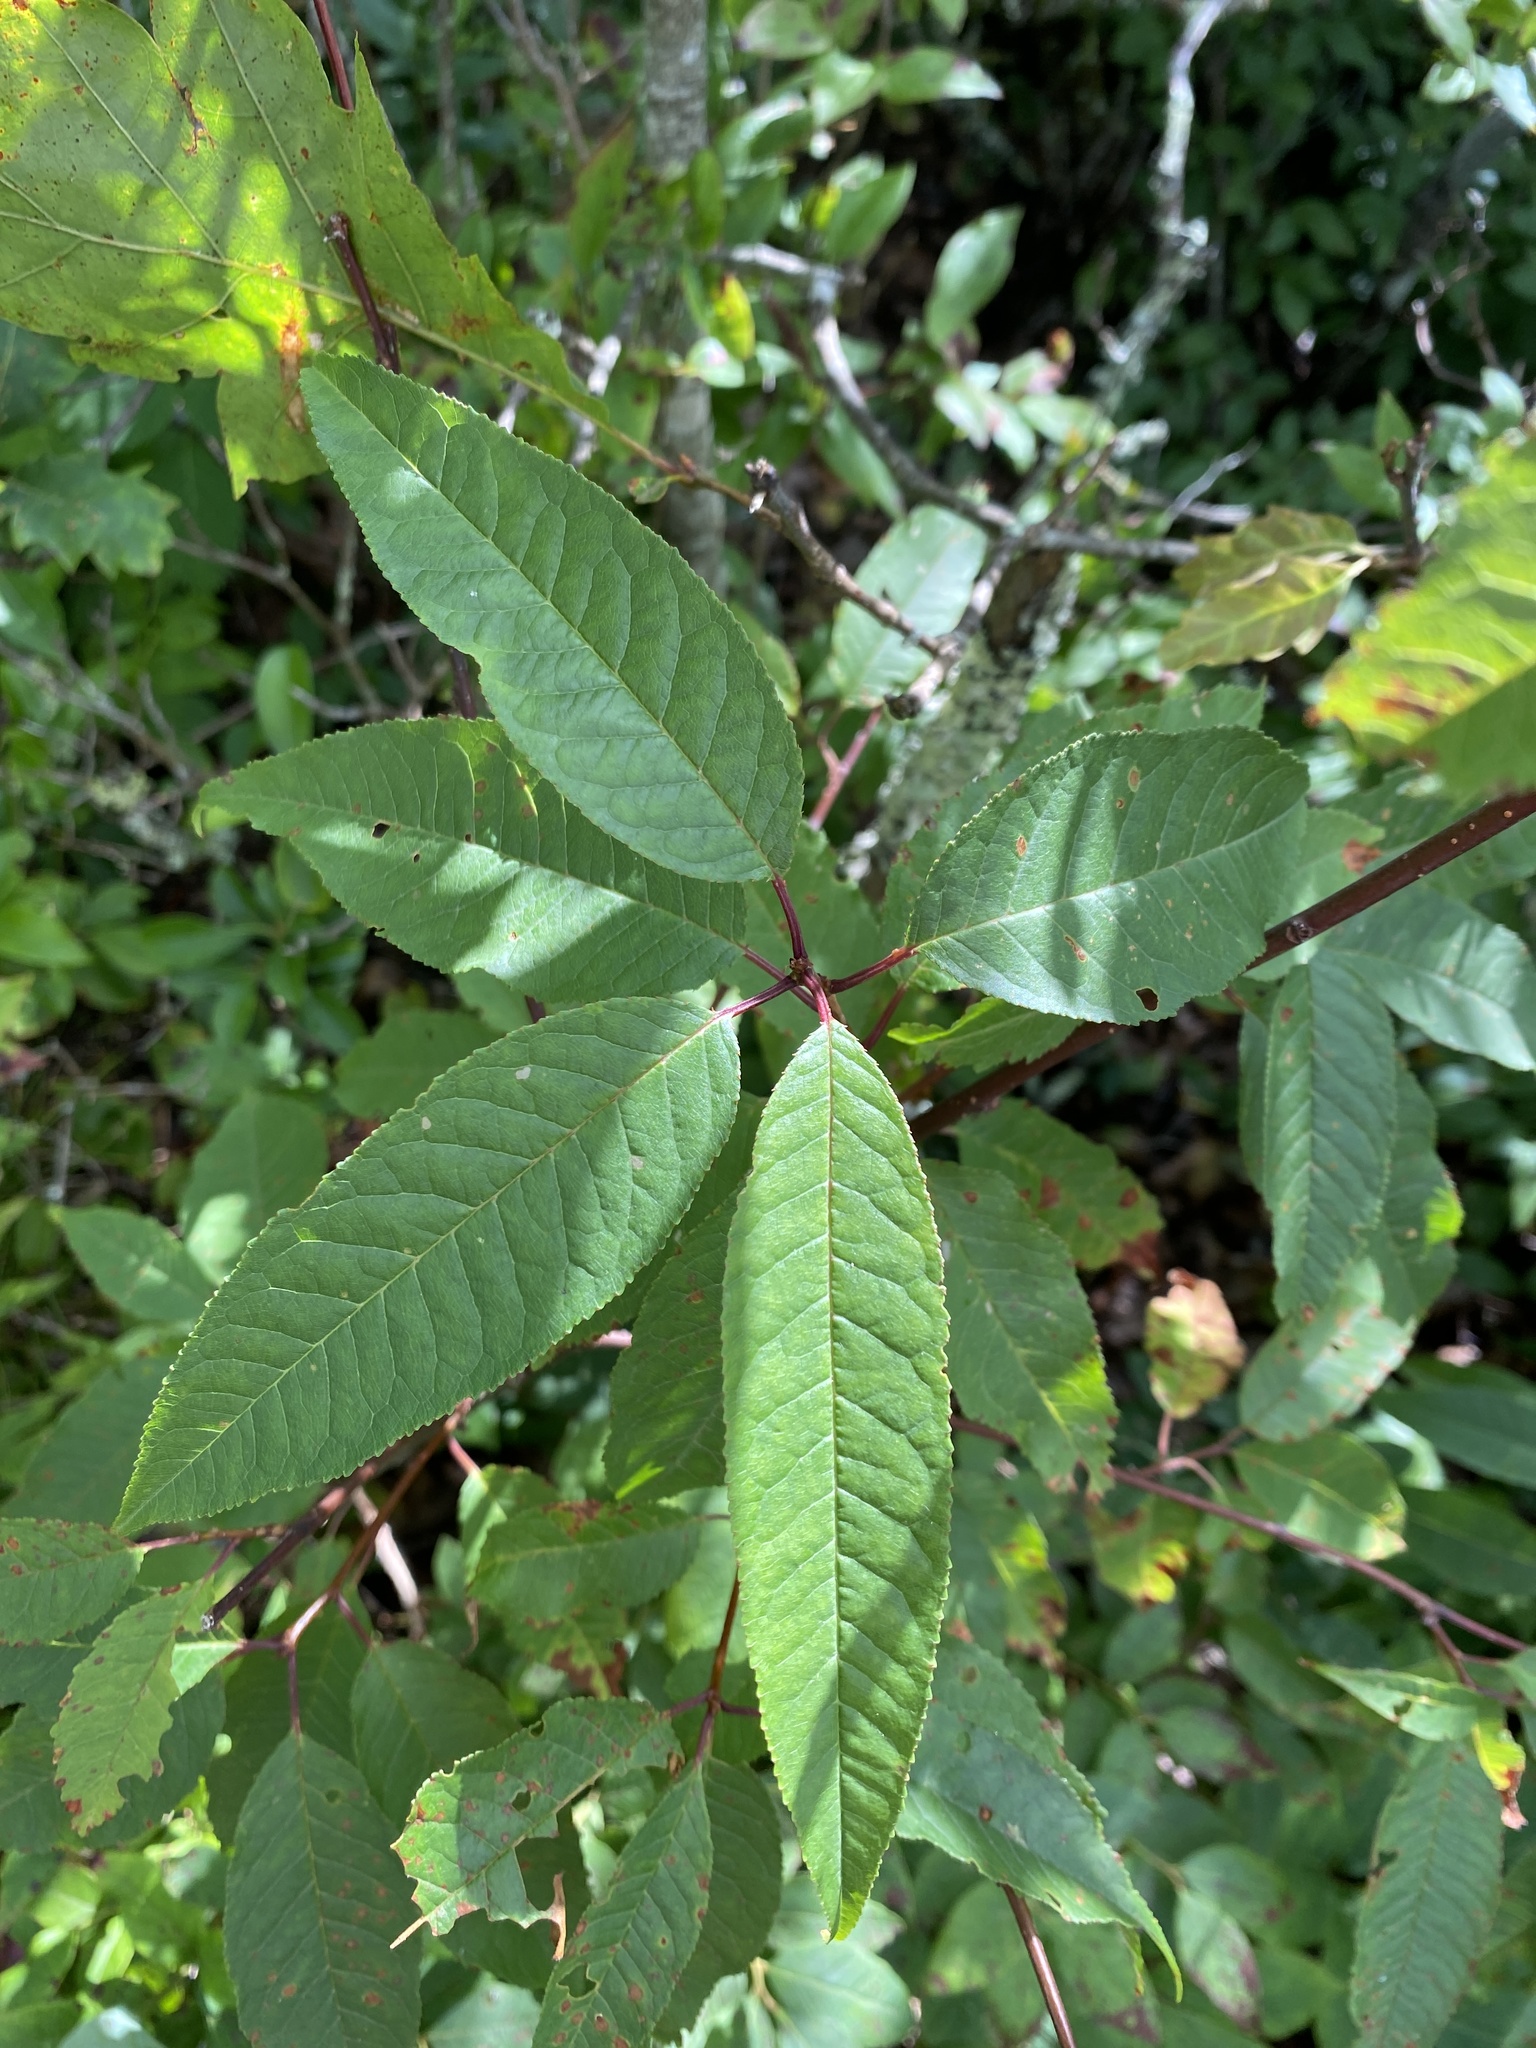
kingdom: Plantae
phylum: Tracheophyta
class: Magnoliopsida
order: Rosales
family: Rosaceae
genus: Prunus
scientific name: Prunus pensylvanica
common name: Pin cherry
